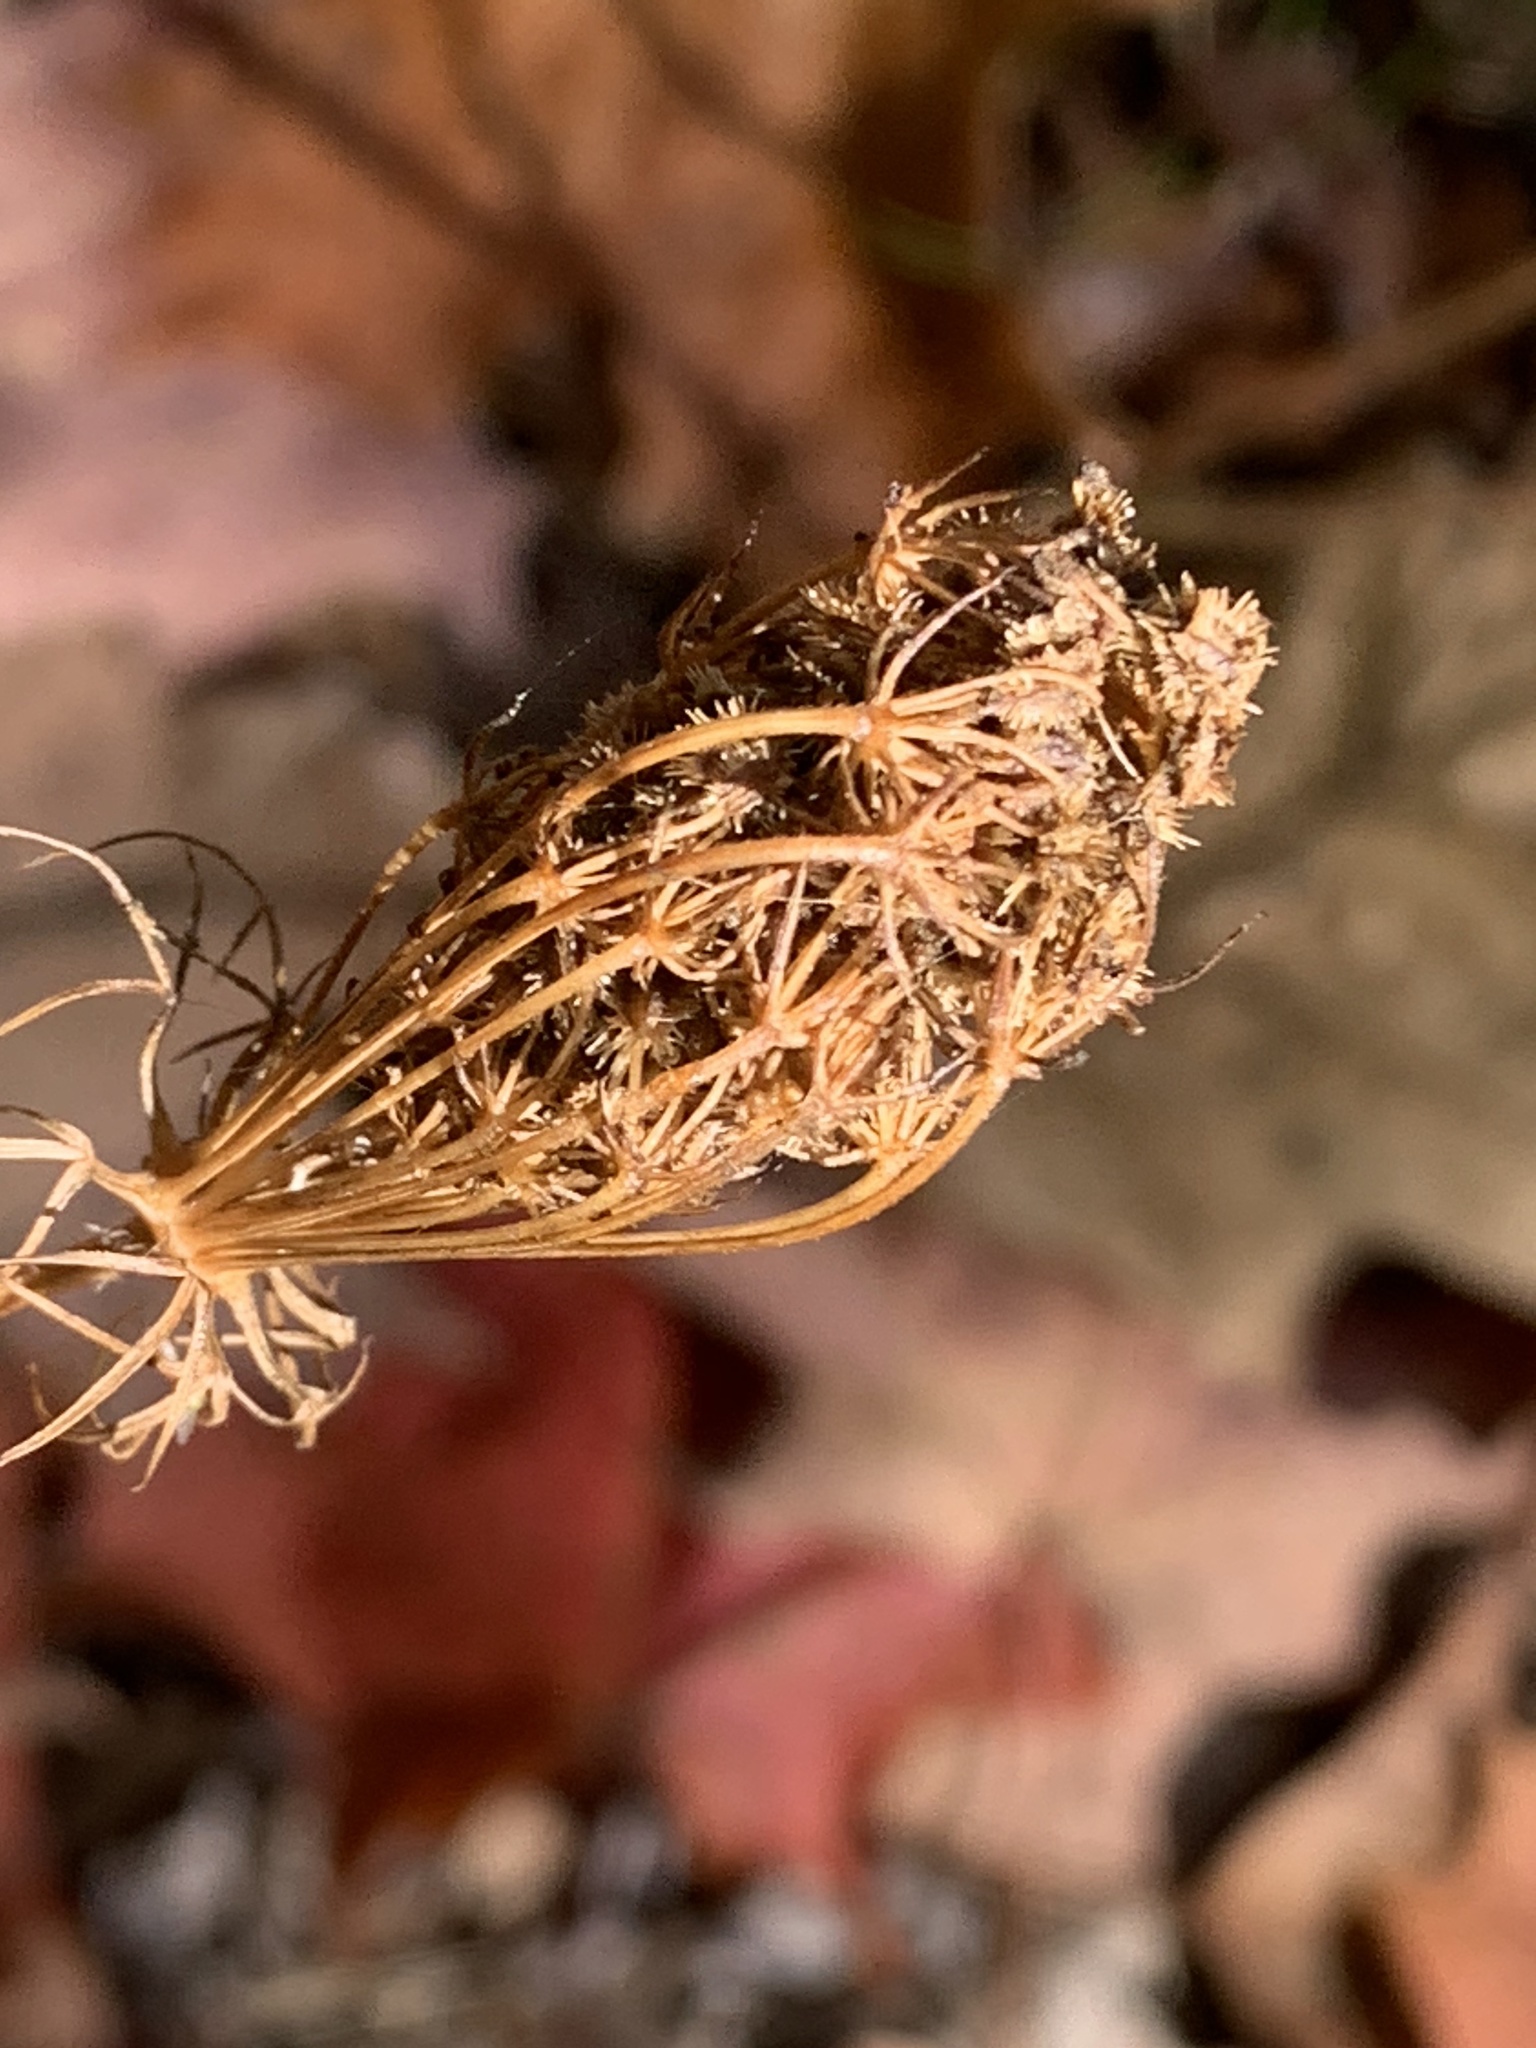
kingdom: Plantae
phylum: Tracheophyta
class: Magnoliopsida
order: Apiales
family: Apiaceae
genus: Daucus
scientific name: Daucus carota
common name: Wild carrot
